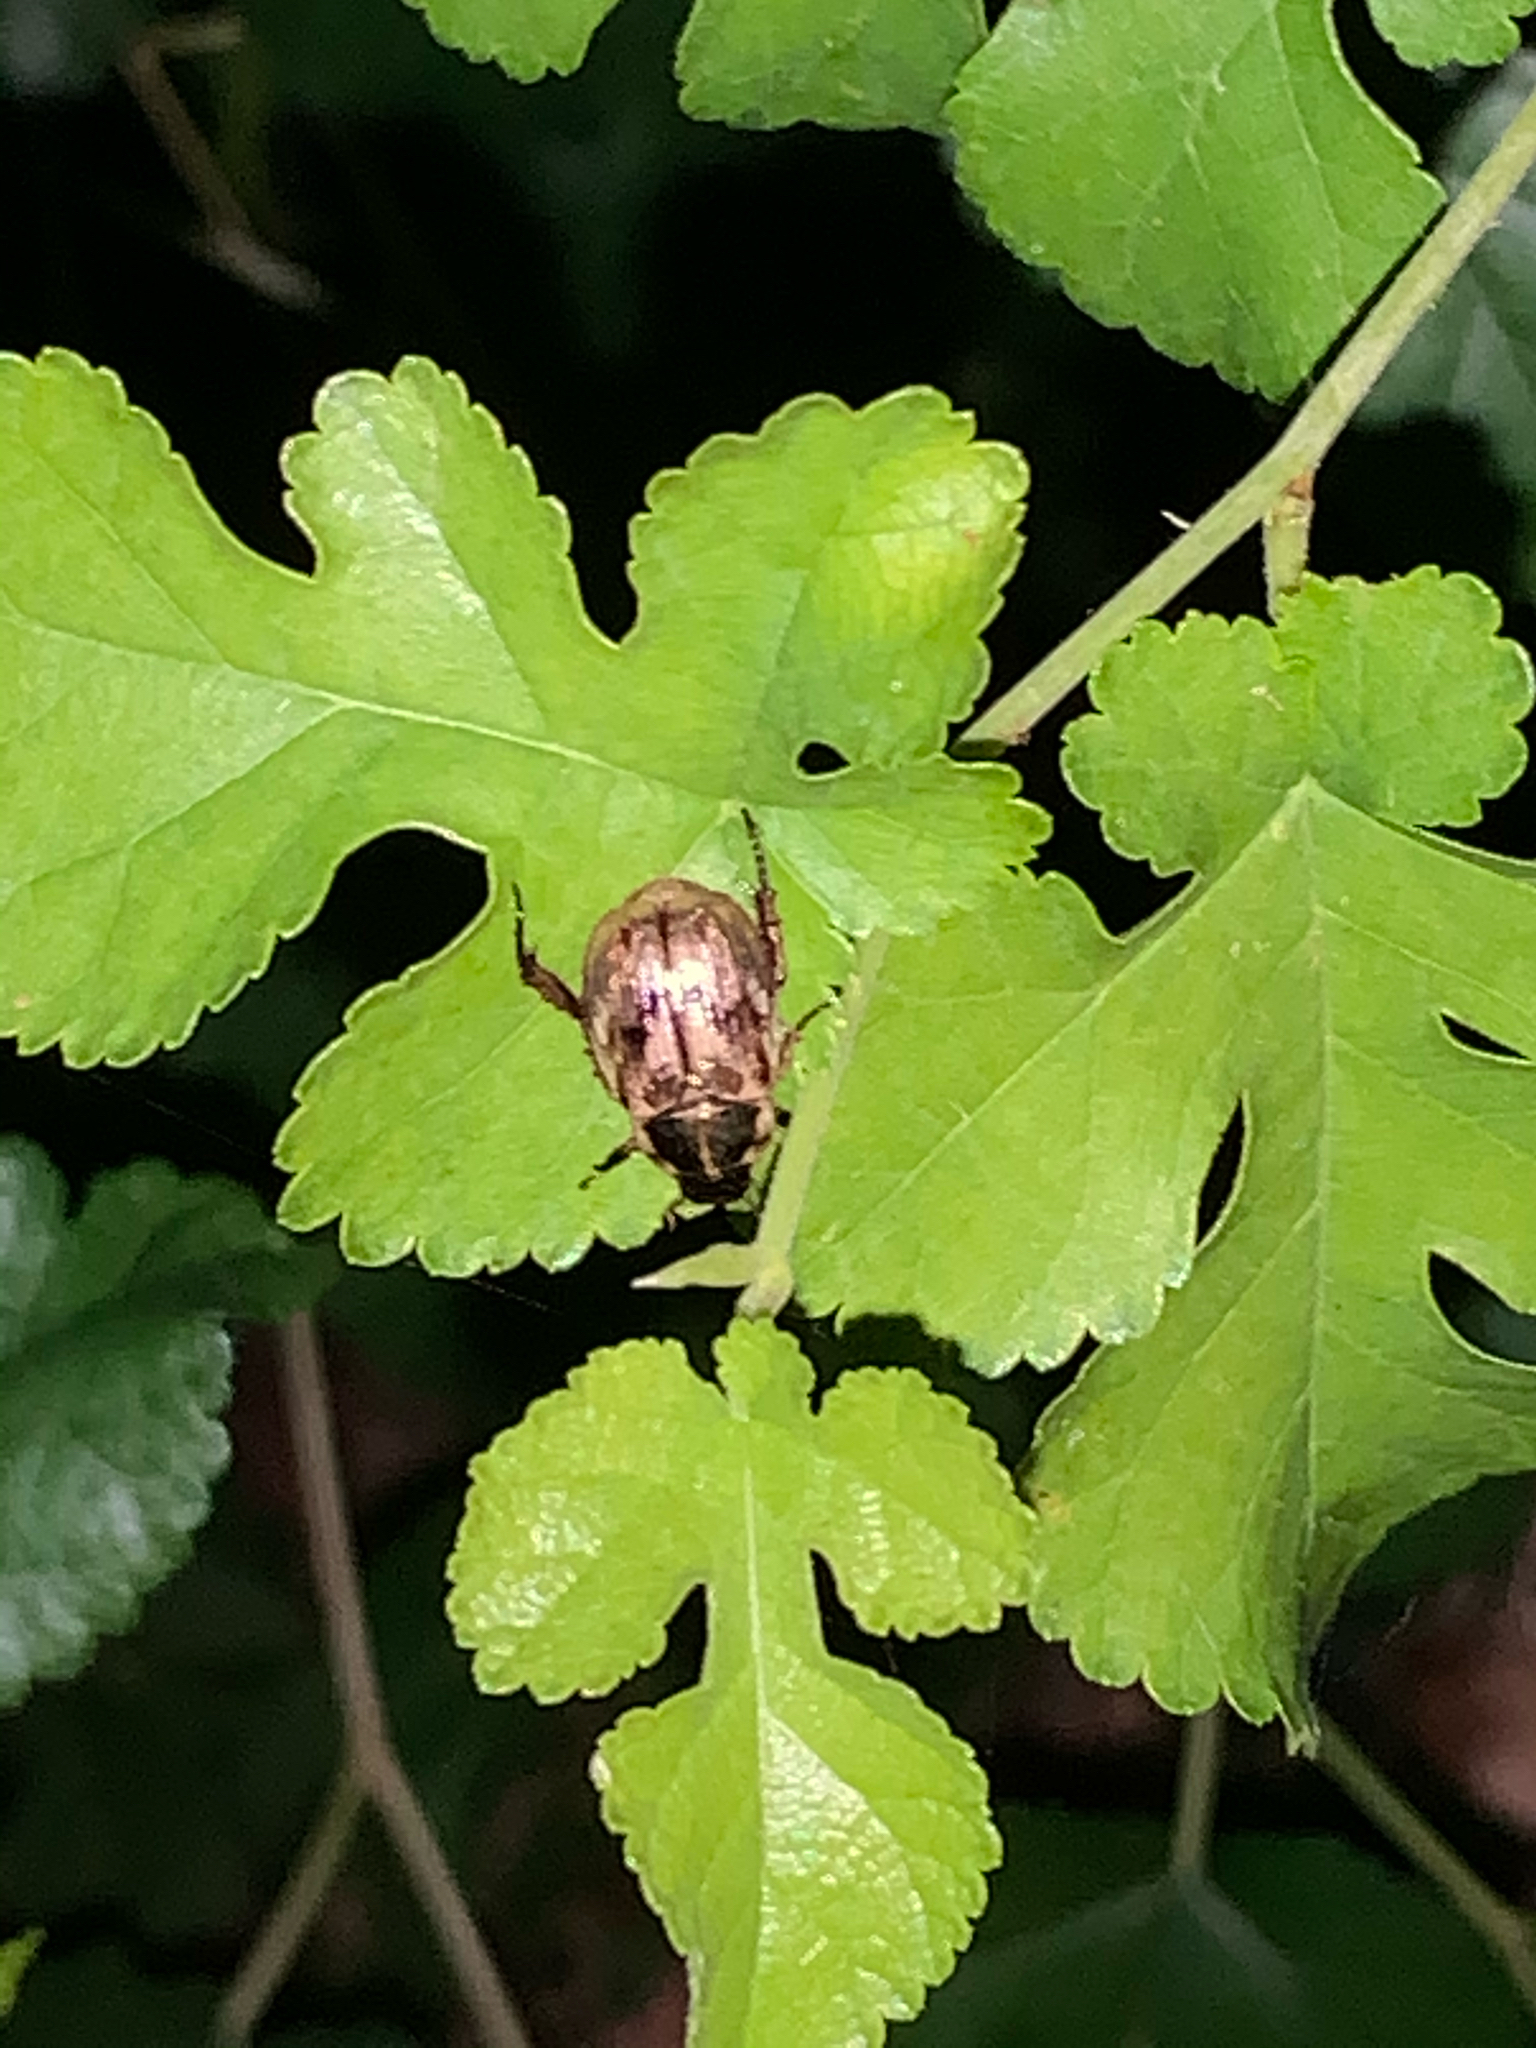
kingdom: Animalia
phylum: Arthropoda
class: Insecta
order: Coleoptera
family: Scarabaeidae
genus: Exomala
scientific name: Exomala orientalis
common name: Oriental beetle
